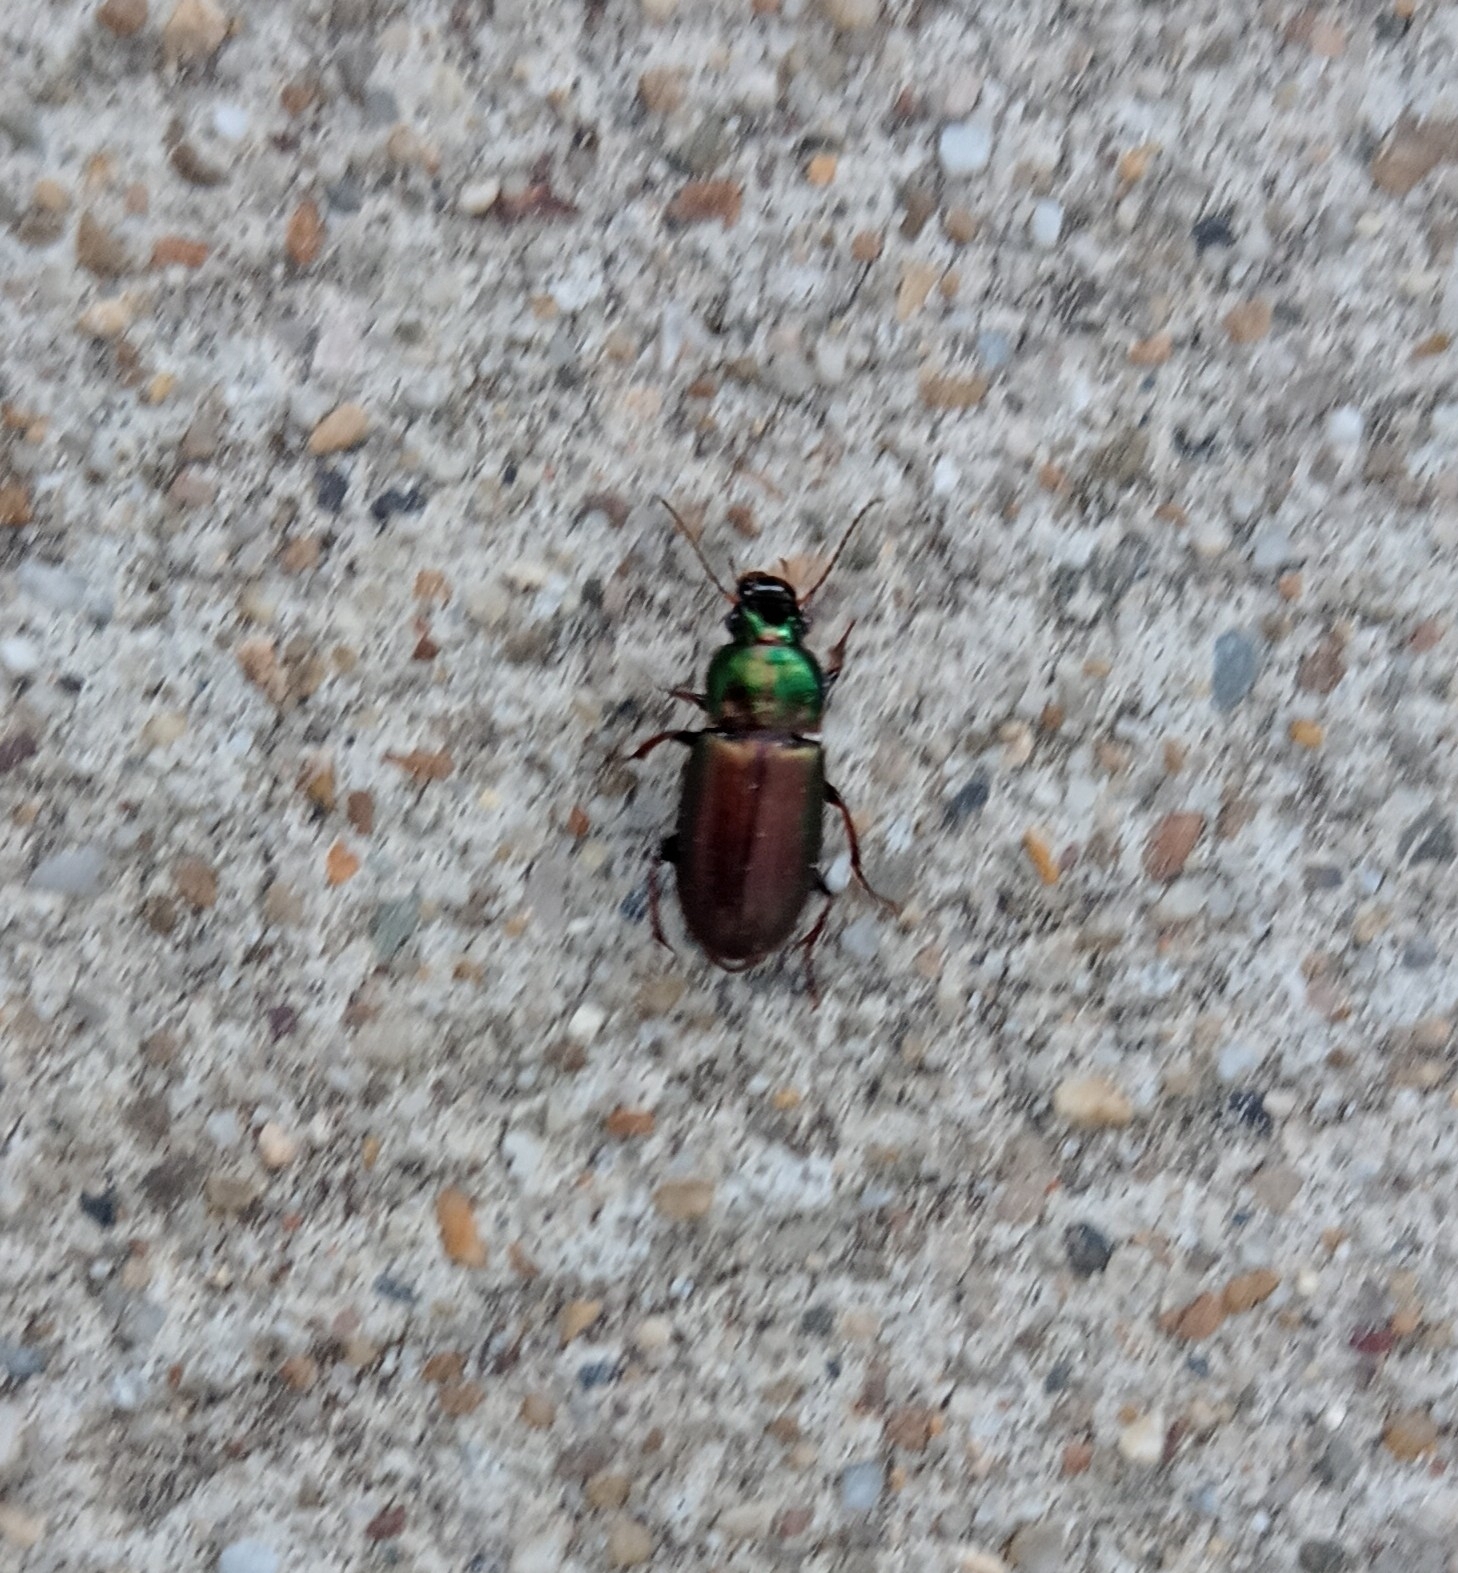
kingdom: Animalia
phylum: Arthropoda
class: Insecta
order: Coleoptera
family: Carabidae
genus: Harpalus
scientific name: Harpalus affinis
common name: Polychrome harp ground beetle
